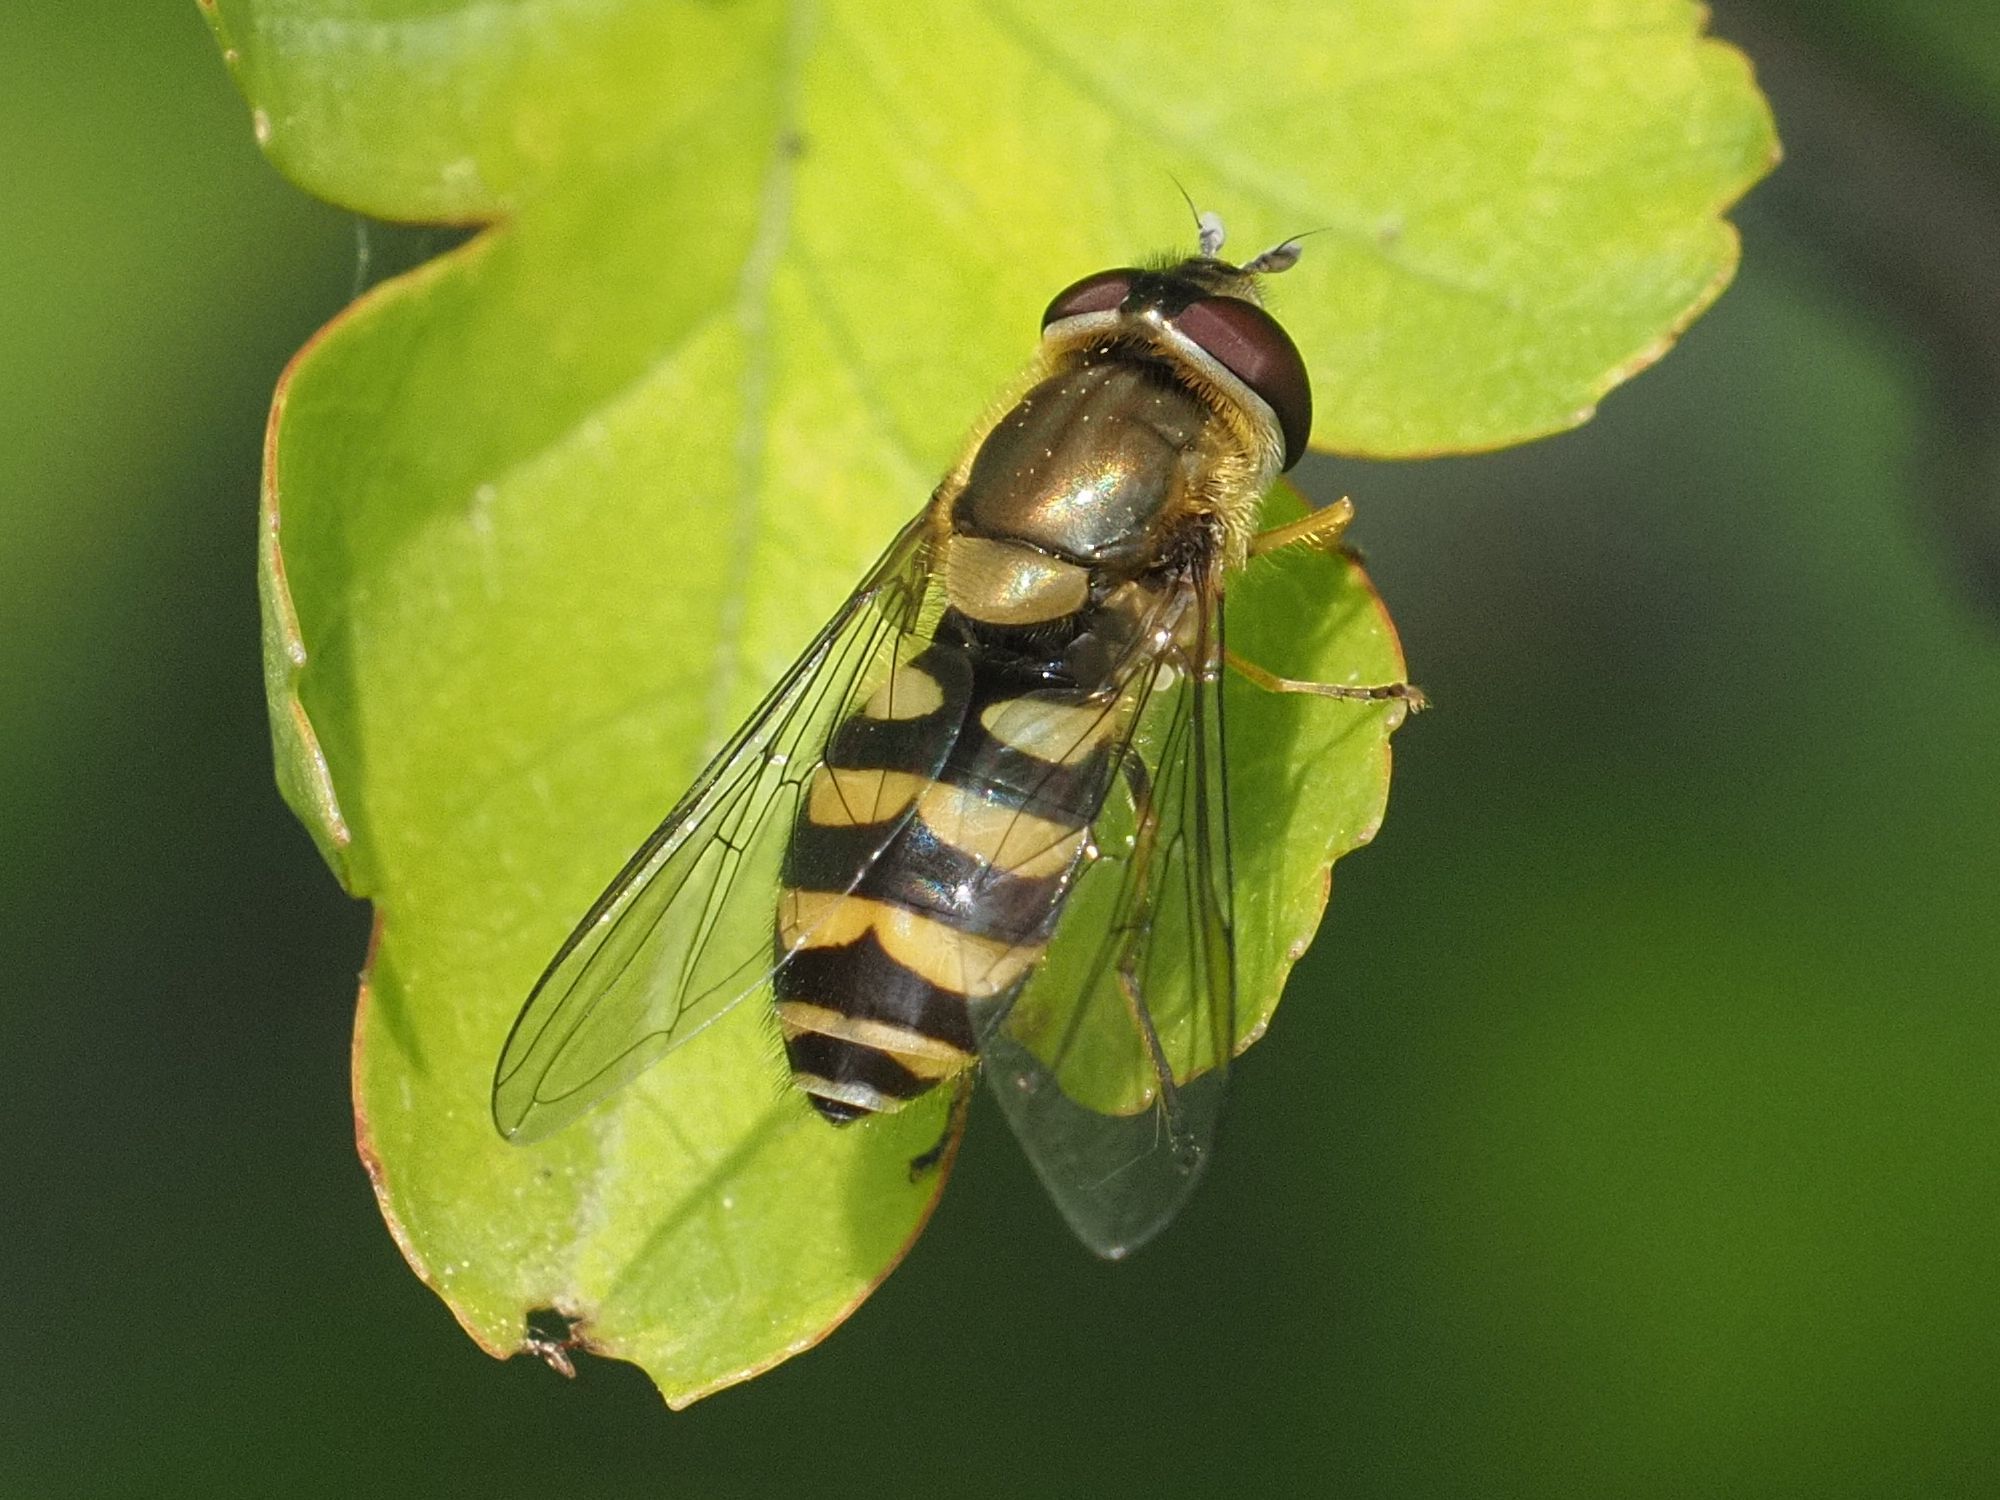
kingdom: Animalia
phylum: Arthropoda
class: Insecta
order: Diptera
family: Syrphidae
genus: Syrphus
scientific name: Syrphus
